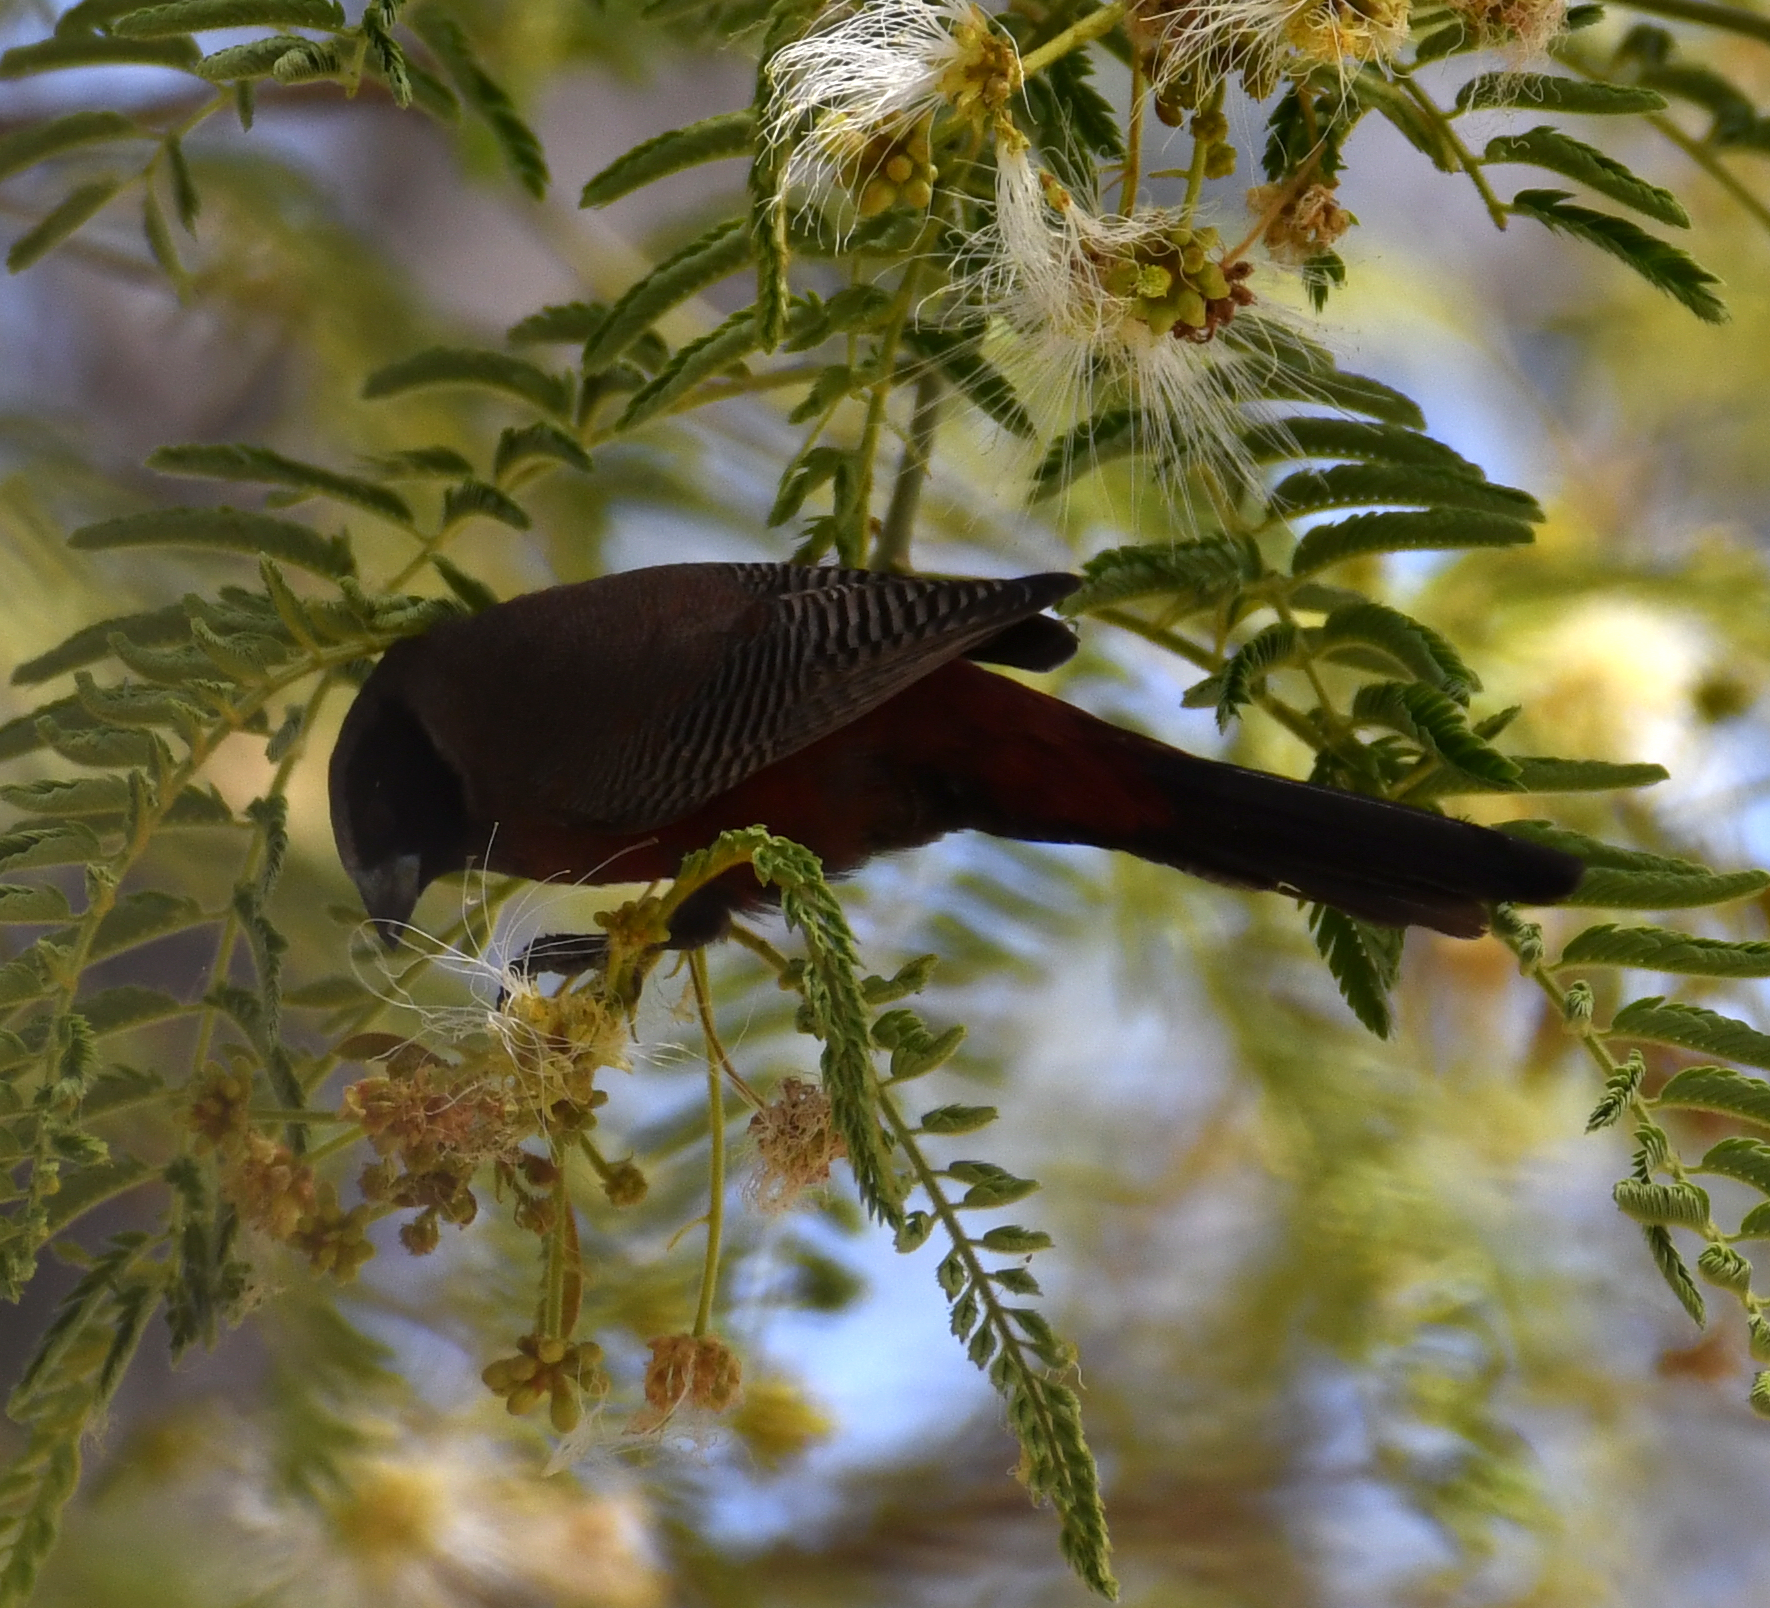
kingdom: Animalia
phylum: Chordata
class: Aves
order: Passeriformes
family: Estrildidae
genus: Estrilda
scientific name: Estrilda erythronotos
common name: Black-faced waxbill
